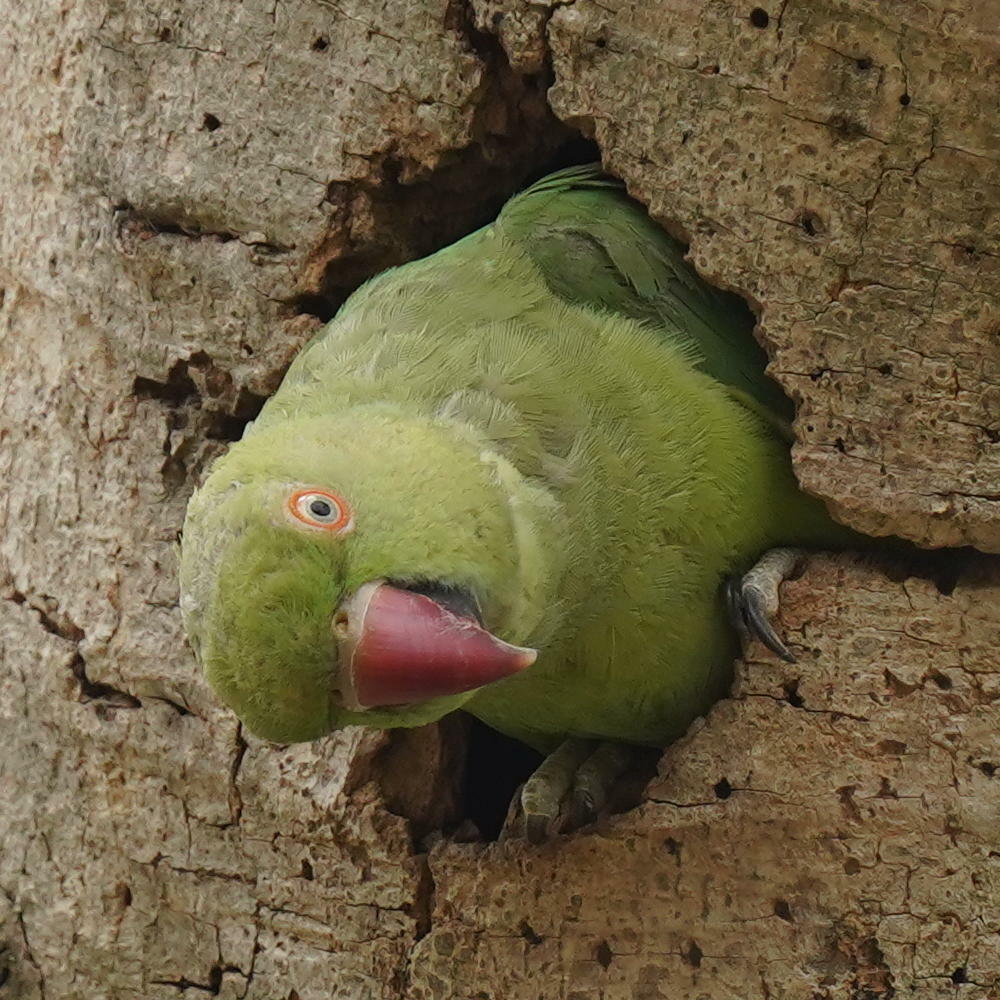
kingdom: Animalia
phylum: Chordata
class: Aves
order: Psittaciformes
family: Psittacidae
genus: Psittacula
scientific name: Psittacula krameri
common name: Rose-ringed parakeet
